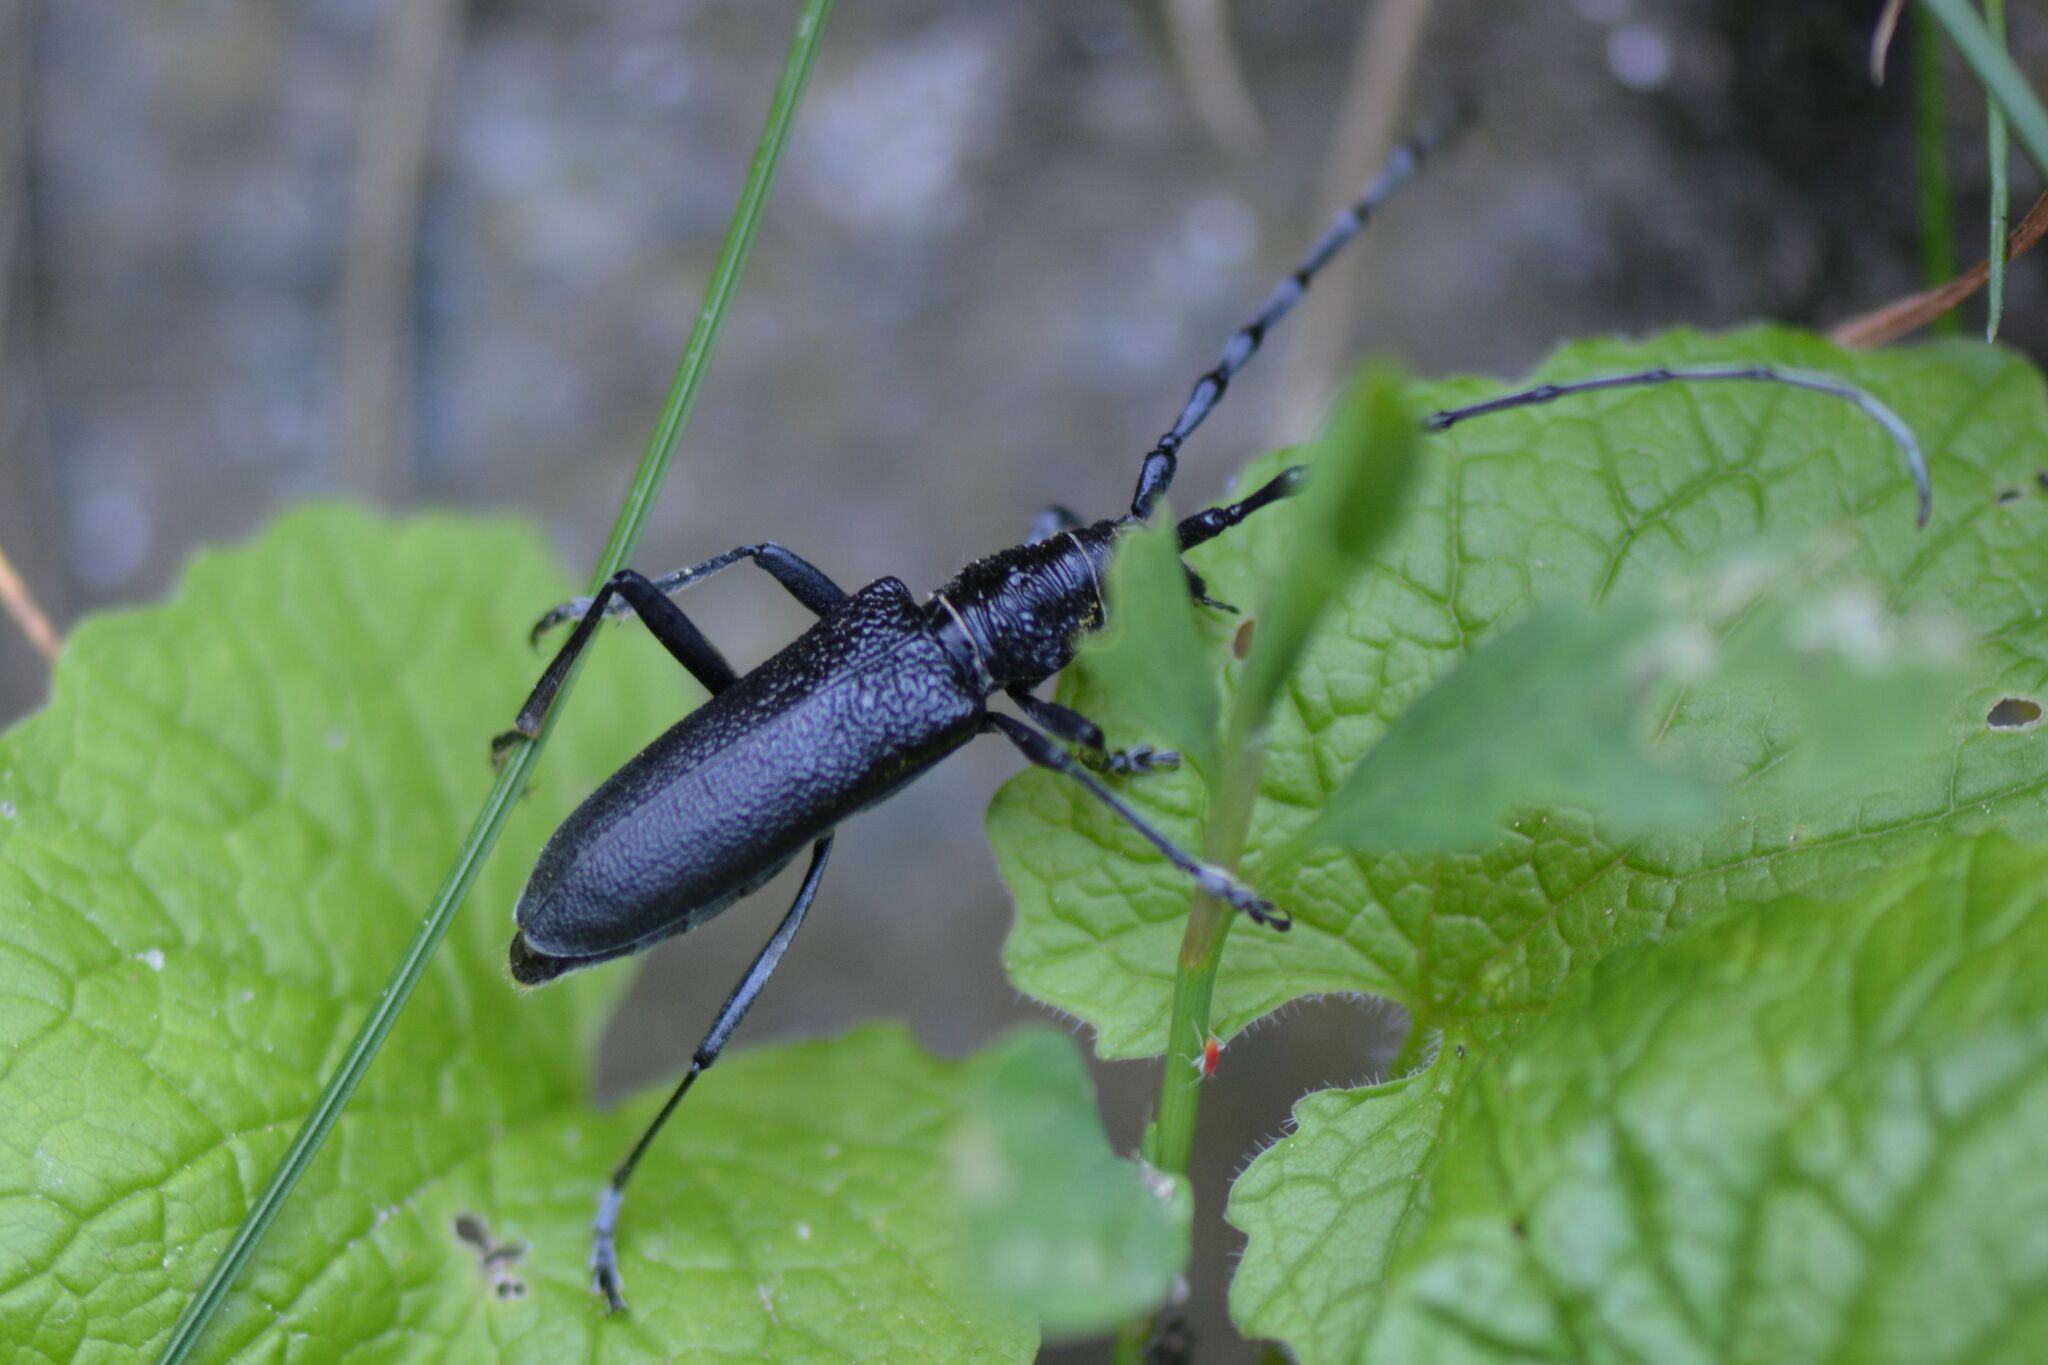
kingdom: Animalia
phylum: Arthropoda
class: Insecta
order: Coleoptera
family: Cerambycidae
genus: Cerambyx
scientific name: Cerambyx scopolii
